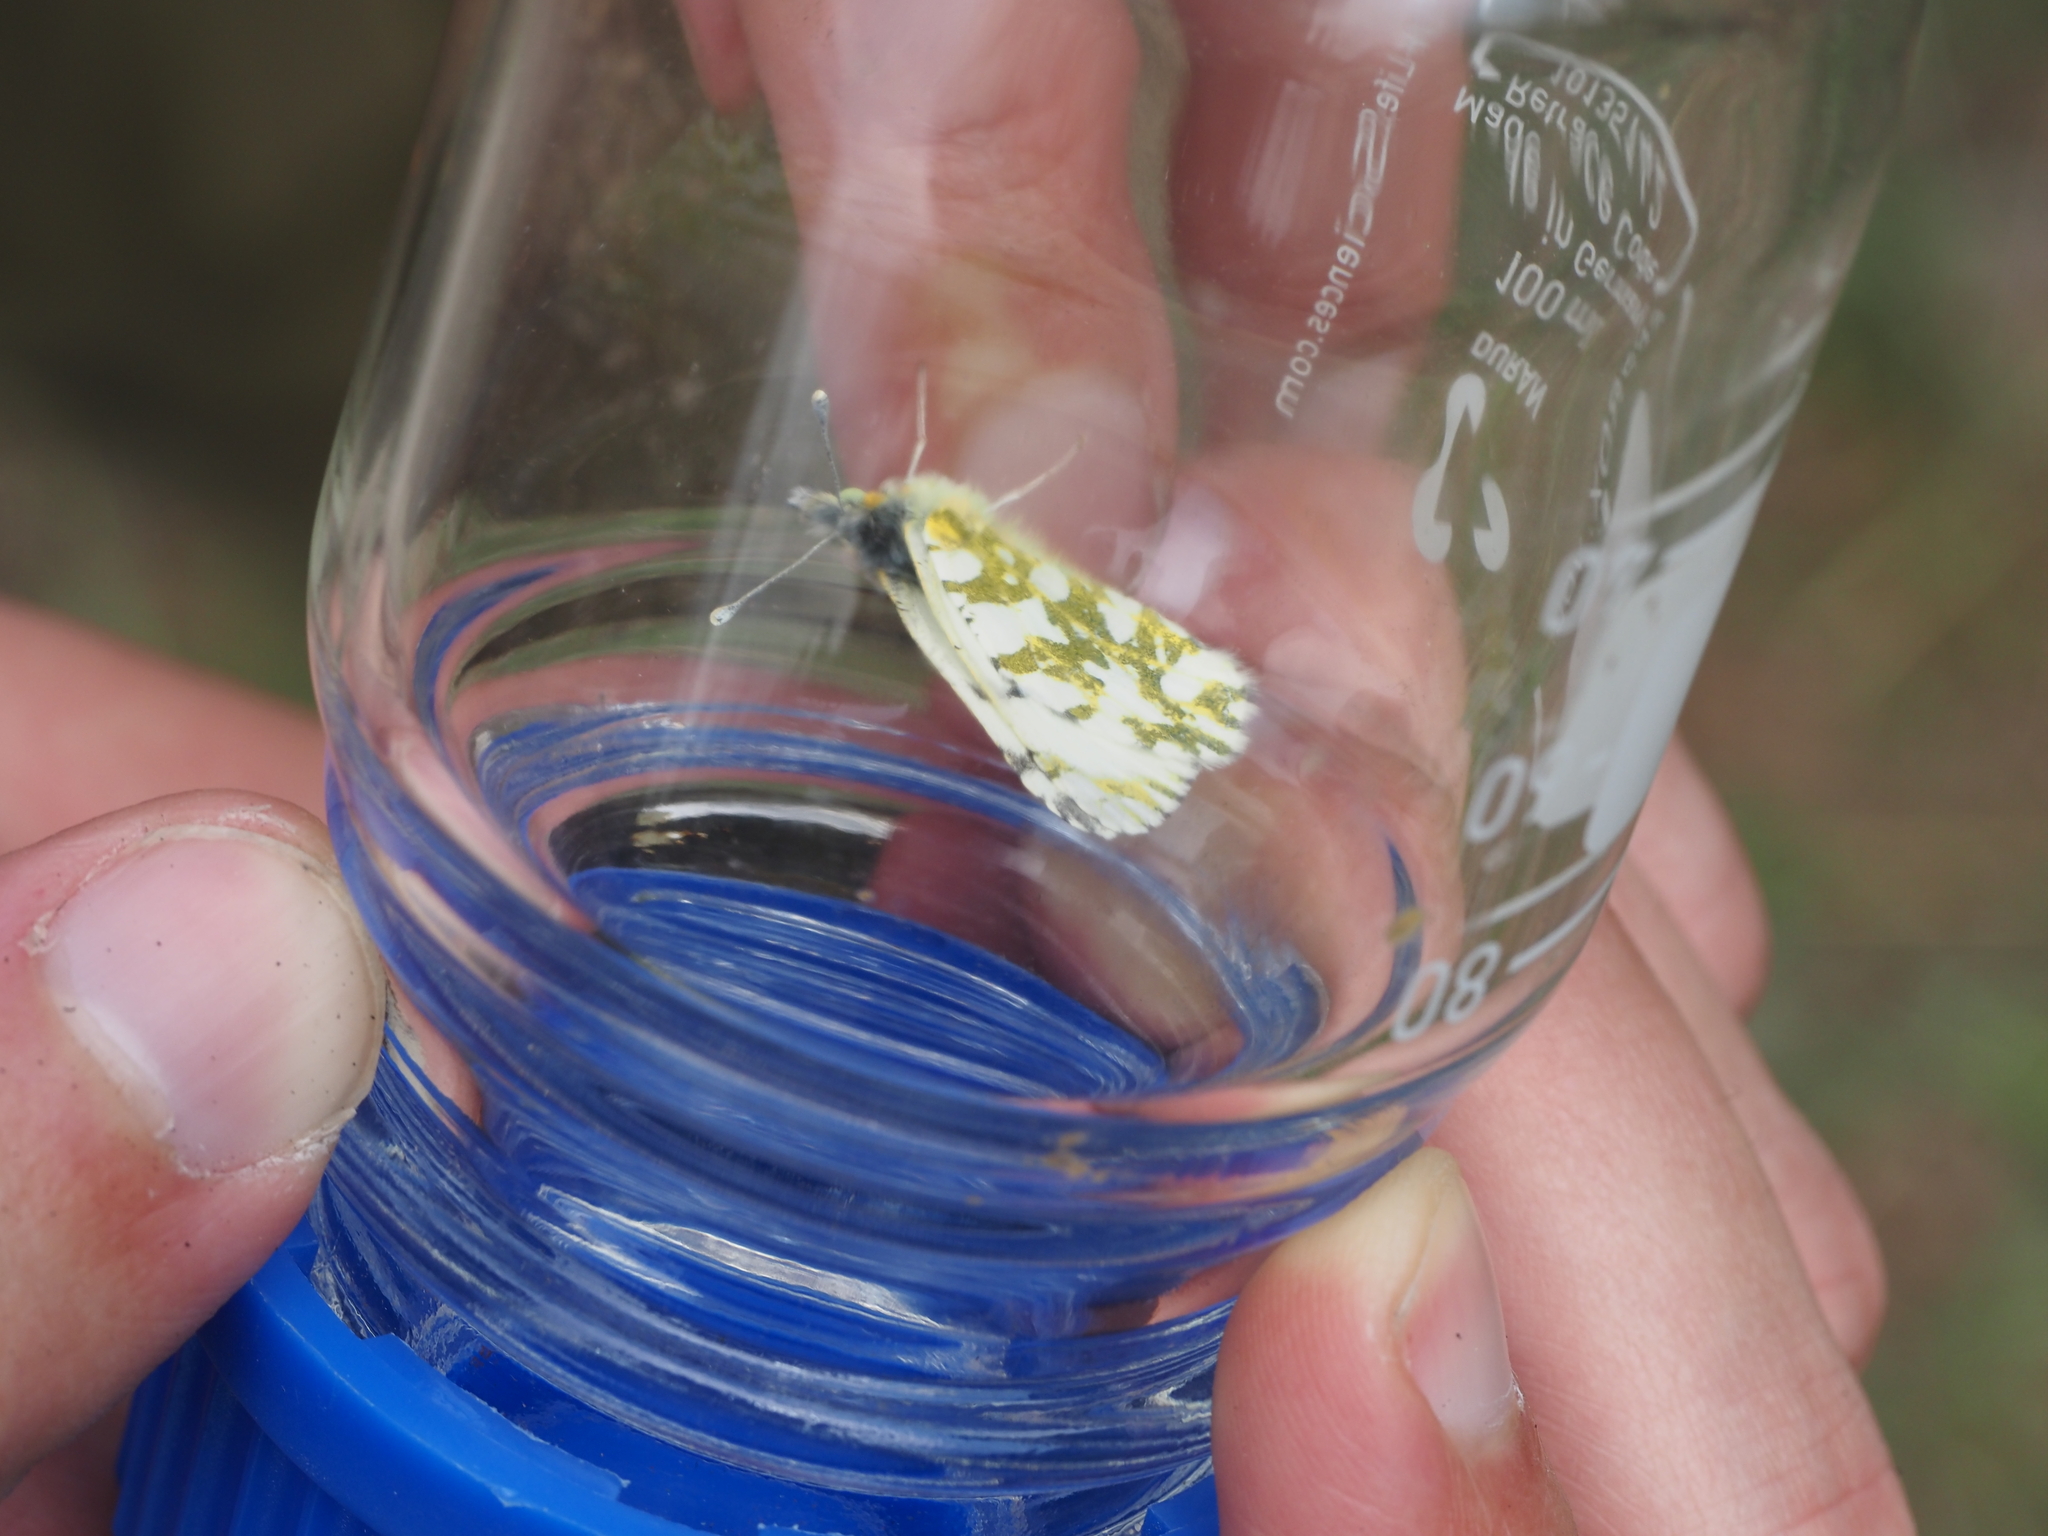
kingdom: Animalia
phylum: Arthropoda
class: Insecta
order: Lepidoptera
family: Pieridae
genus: Euchloe
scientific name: Euchloe ausonides
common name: Creamy marblewing
